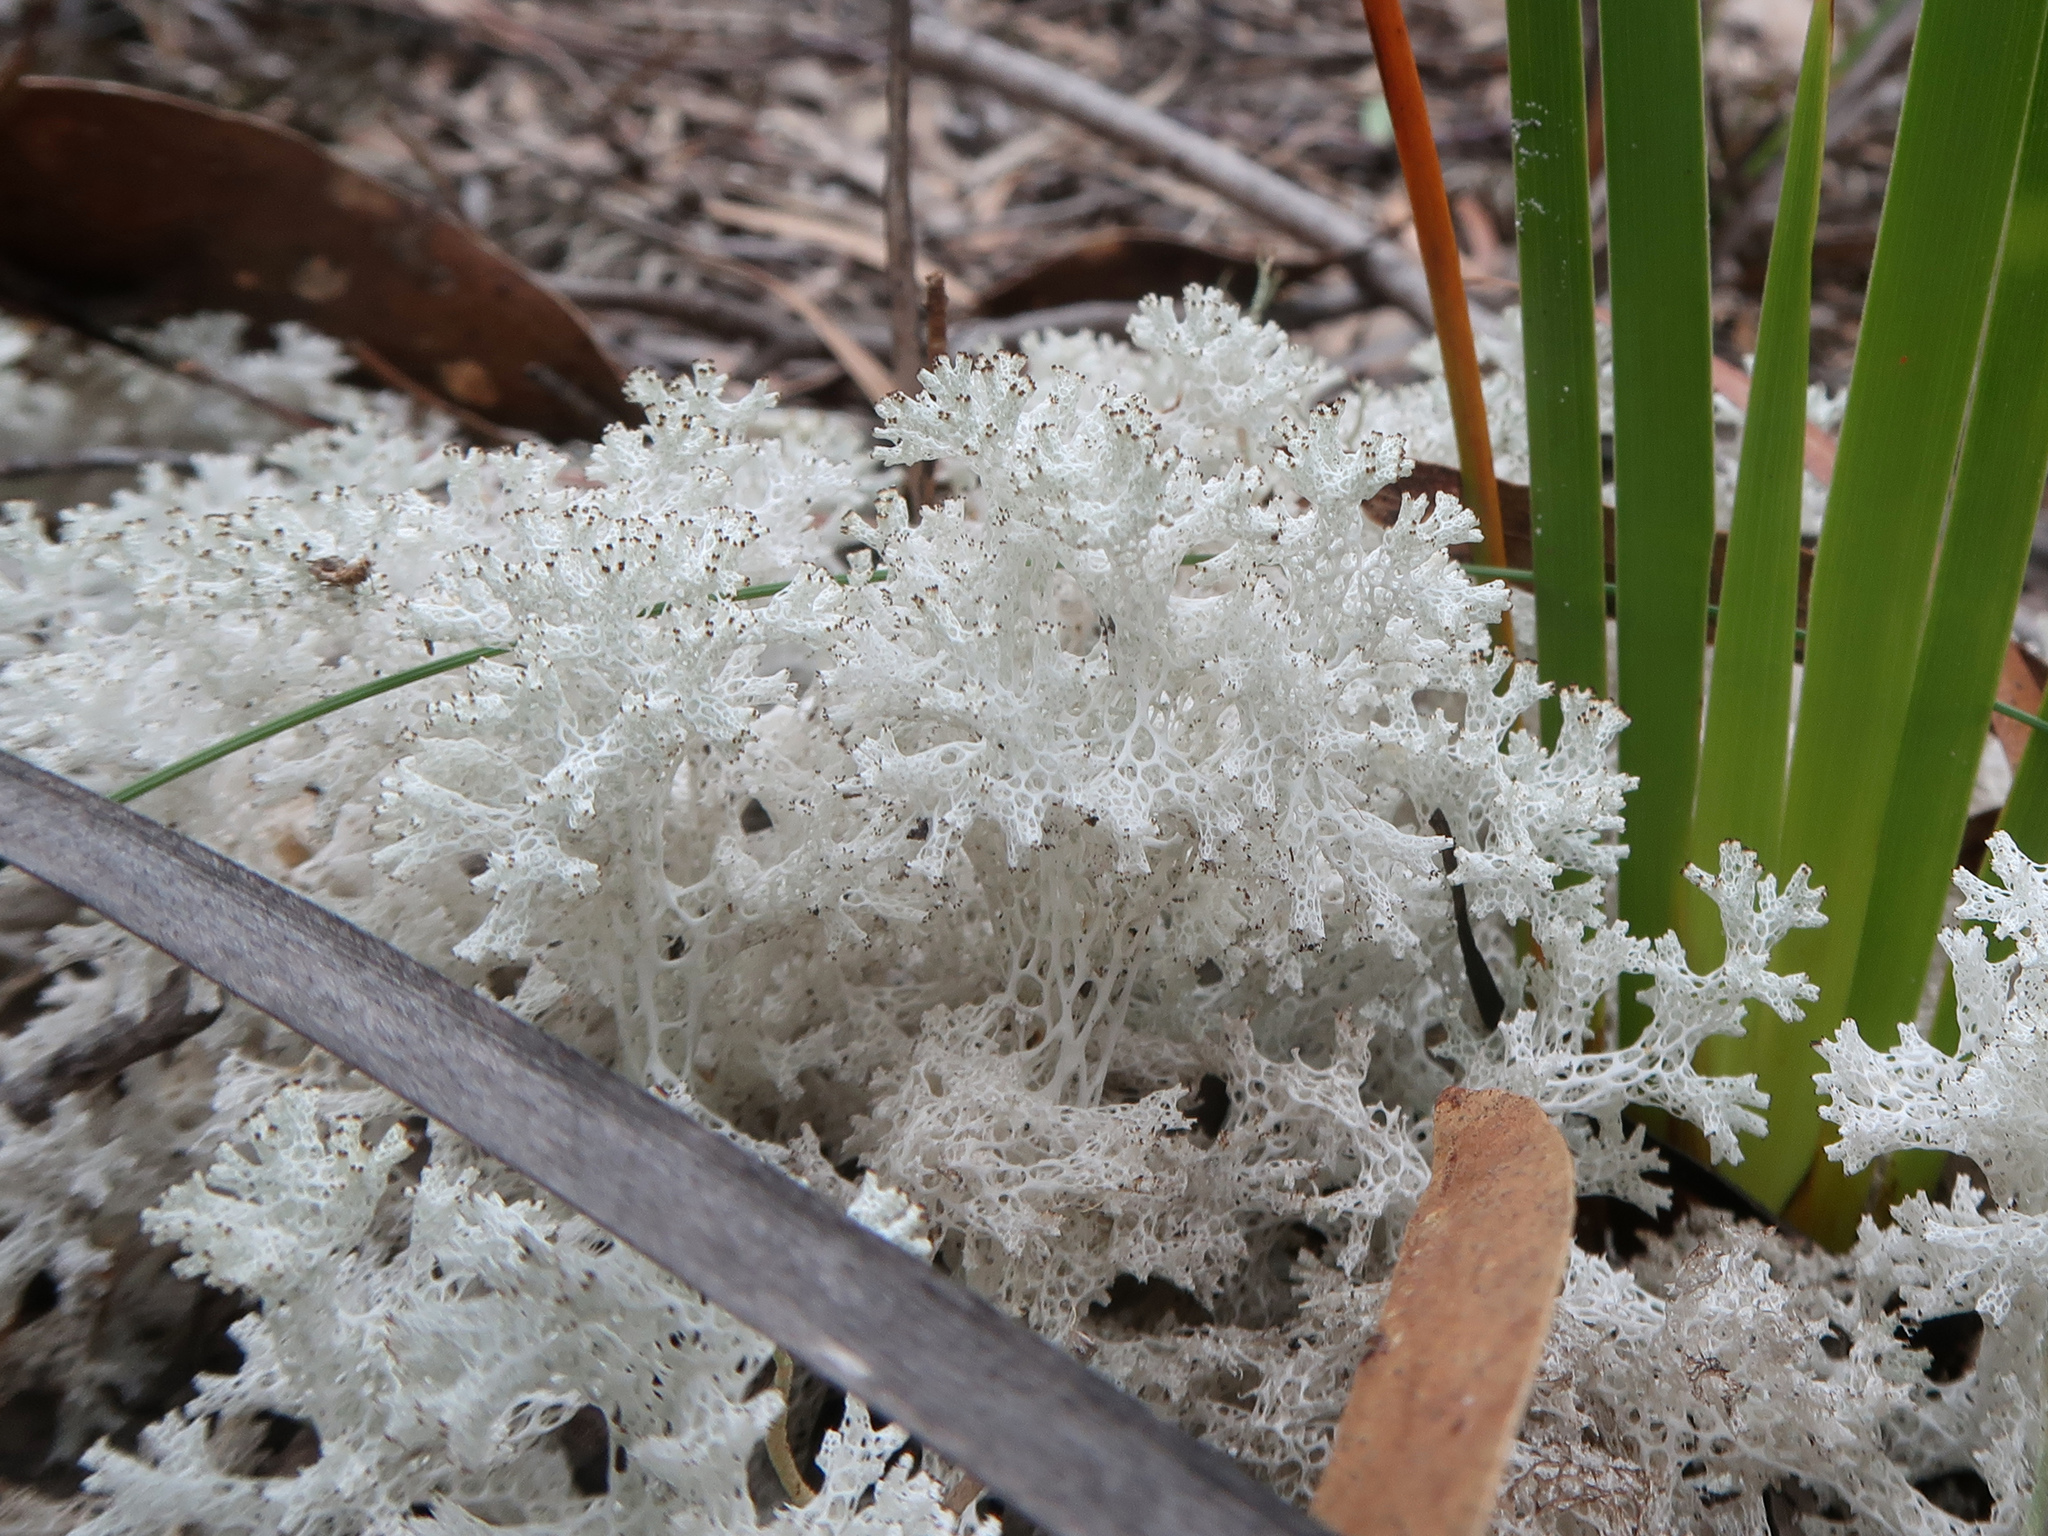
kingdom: Fungi
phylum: Ascomycota
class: Lecanoromycetes
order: Lecanorales
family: Cladoniaceae
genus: Pulchrocladia
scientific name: Pulchrocladia retipora
